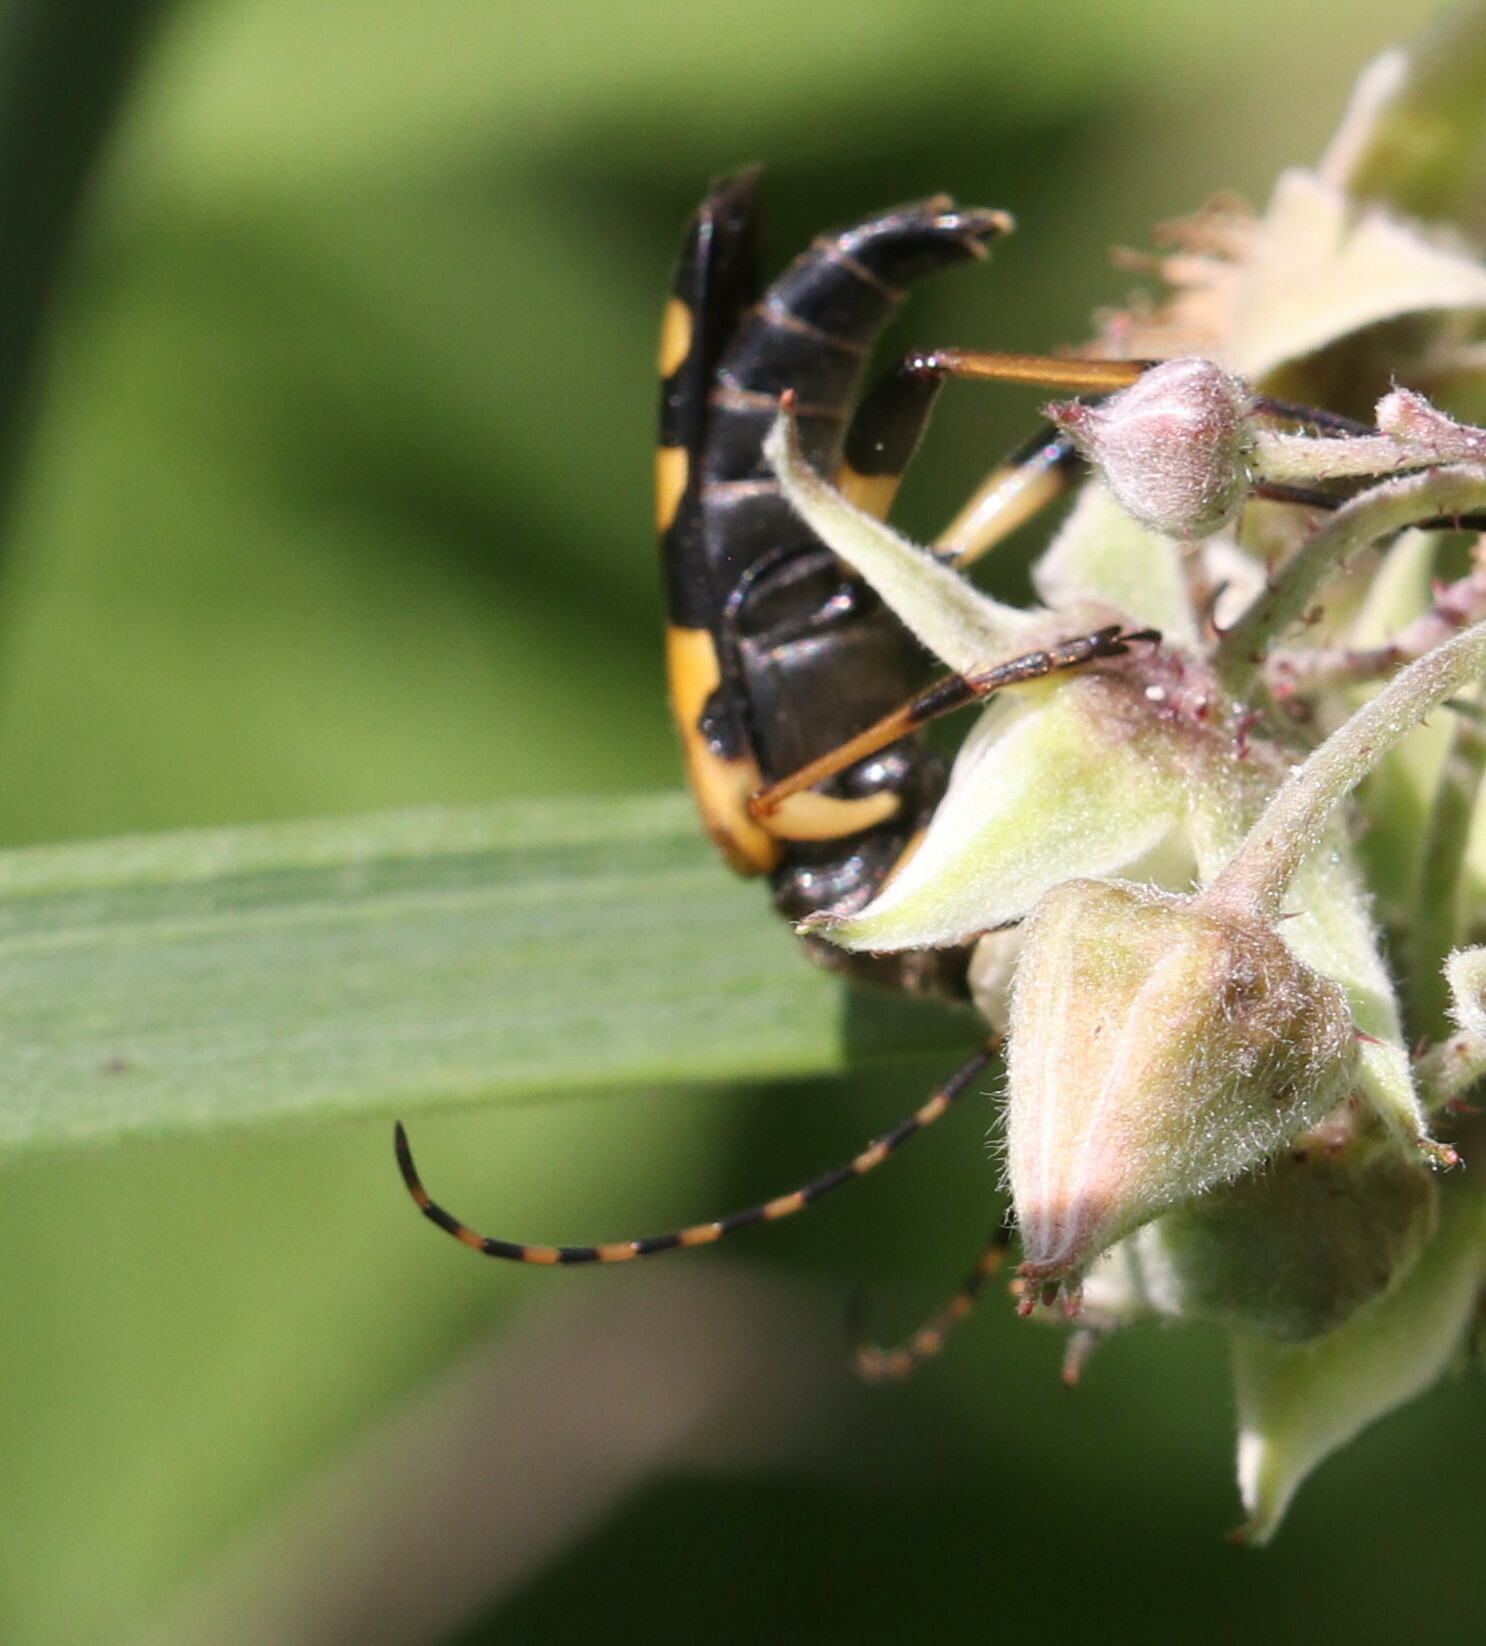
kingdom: Animalia
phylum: Arthropoda
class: Insecta
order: Coleoptera
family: Cerambycidae
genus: Rutpela
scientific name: Rutpela maculata
